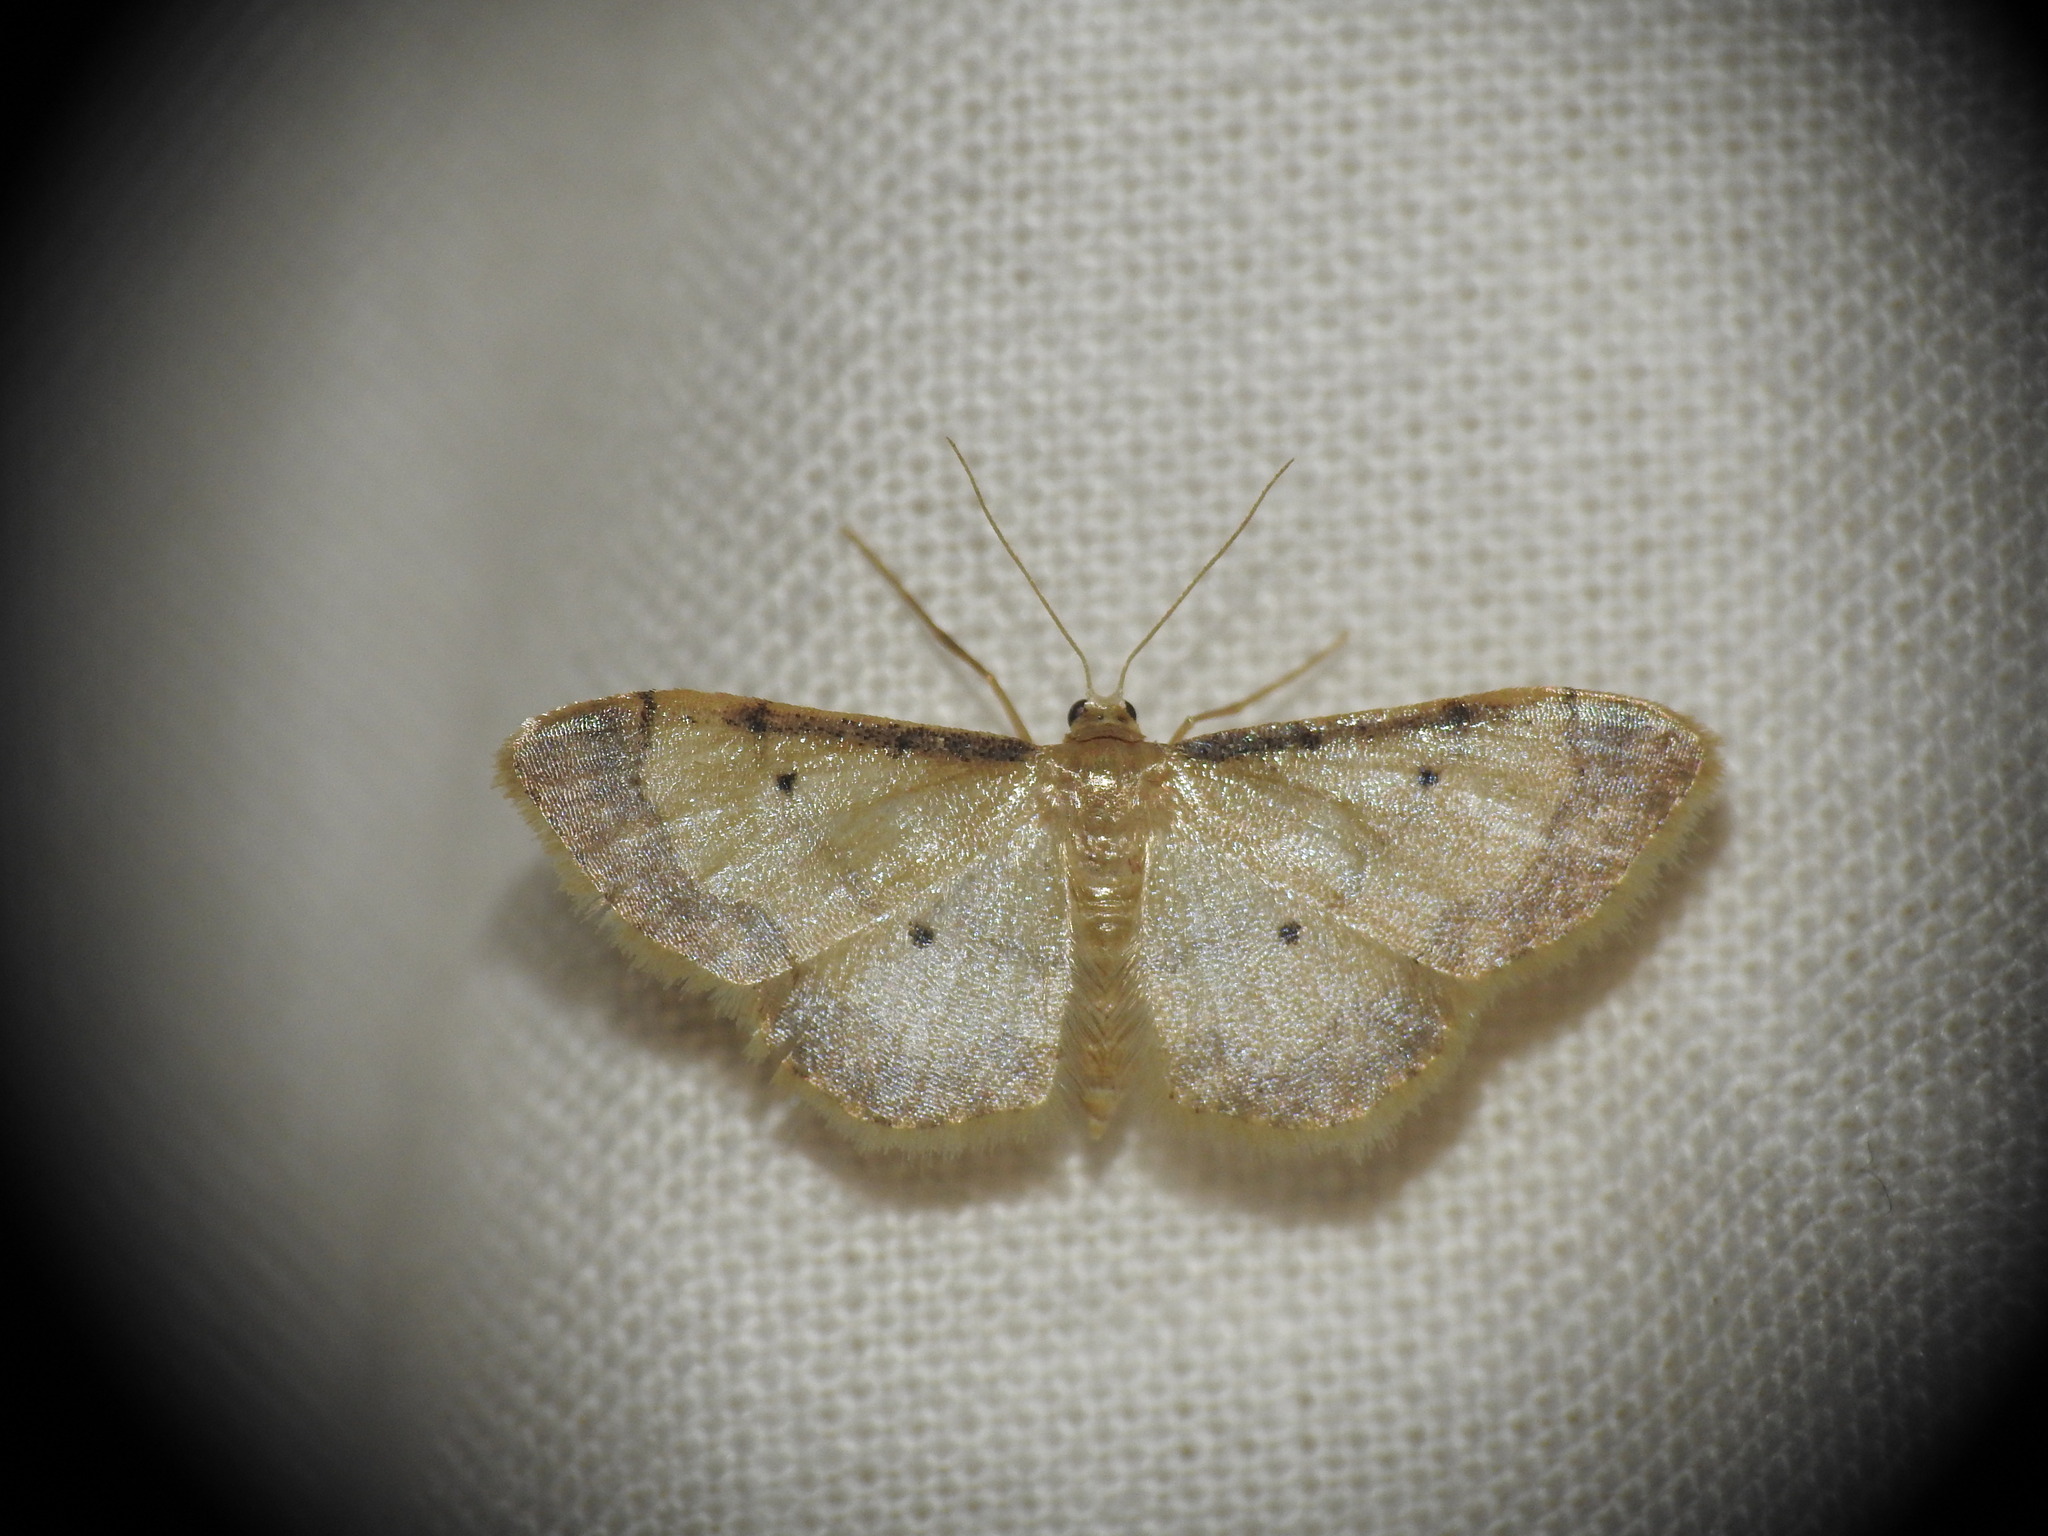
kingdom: Animalia
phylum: Arthropoda
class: Insecta
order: Lepidoptera
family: Geometridae
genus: Idaea
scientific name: Idaea politaria
